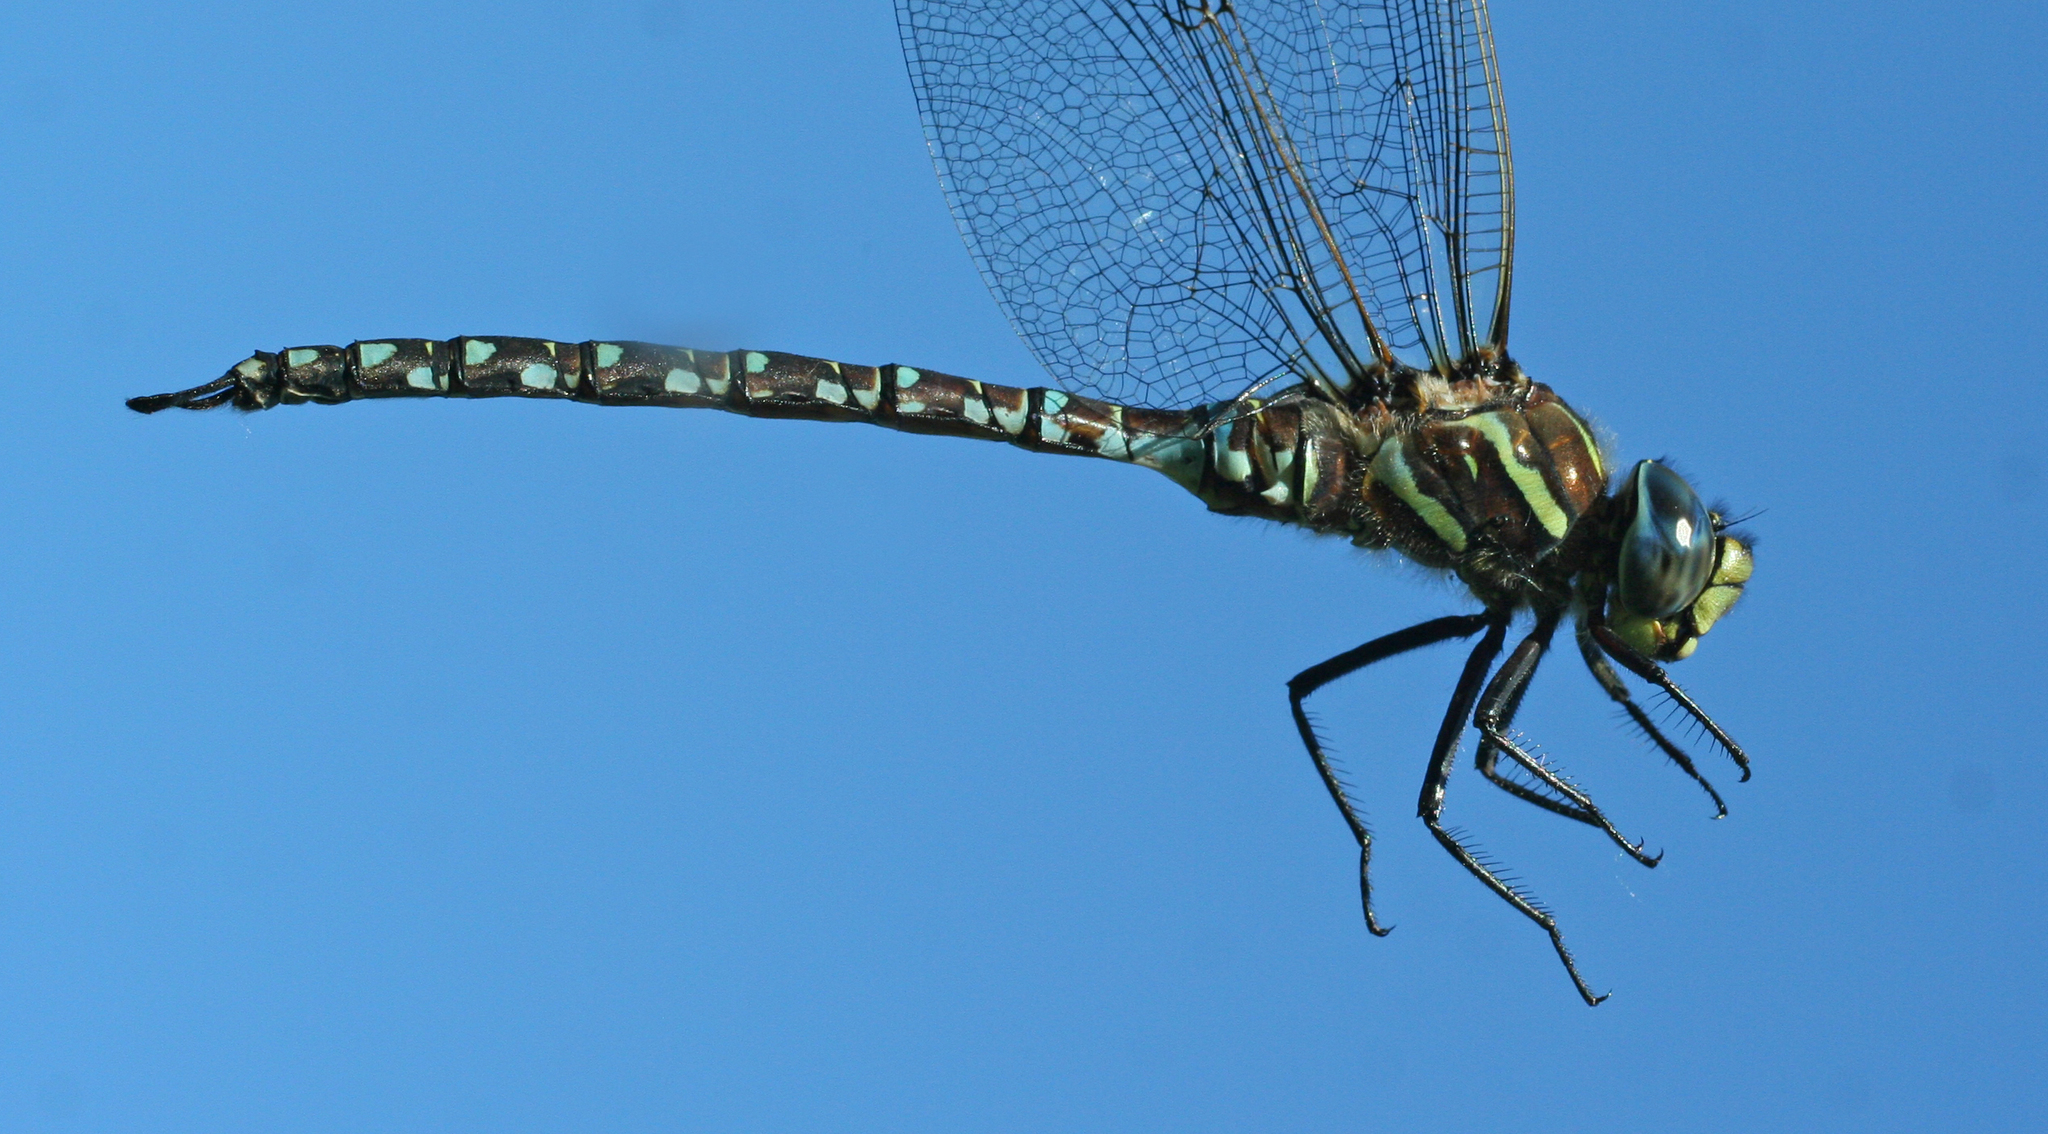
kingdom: Animalia
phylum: Arthropoda
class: Insecta
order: Odonata
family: Aeshnidae
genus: Aeshna
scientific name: Aeshna juncea
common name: Moorland hawker
